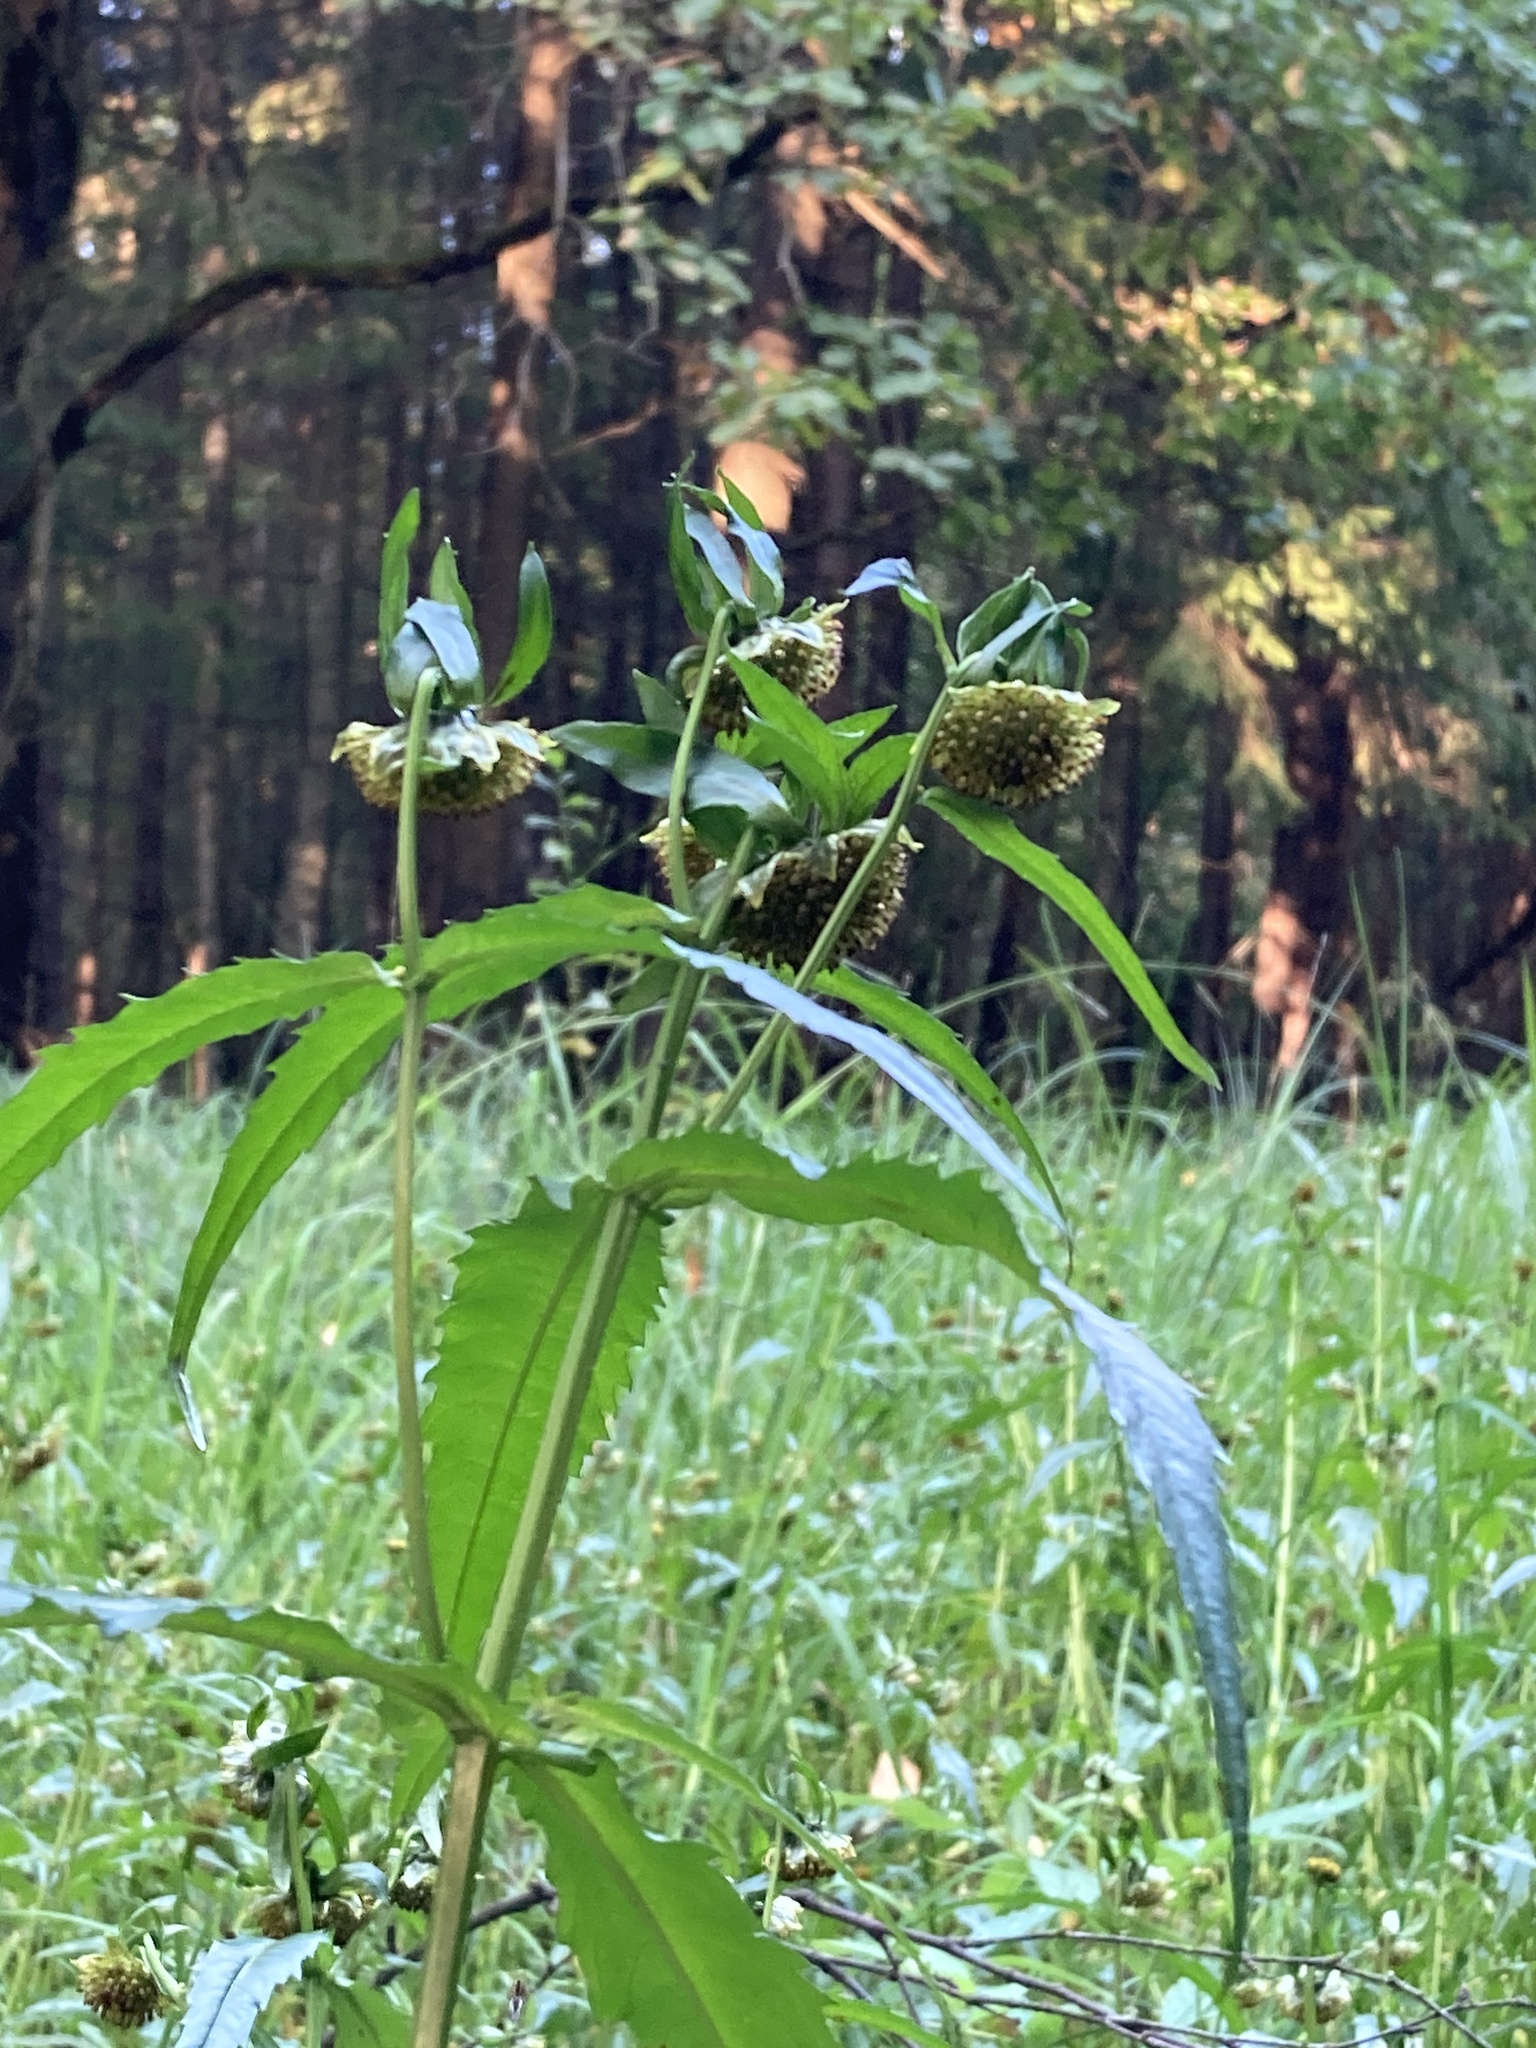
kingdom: Plantae
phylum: Tracheophyta
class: Magnoliopsida
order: Asterales
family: Asteraceae
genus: Bidens
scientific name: Bidens cernua
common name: Nodding bur-marigold
